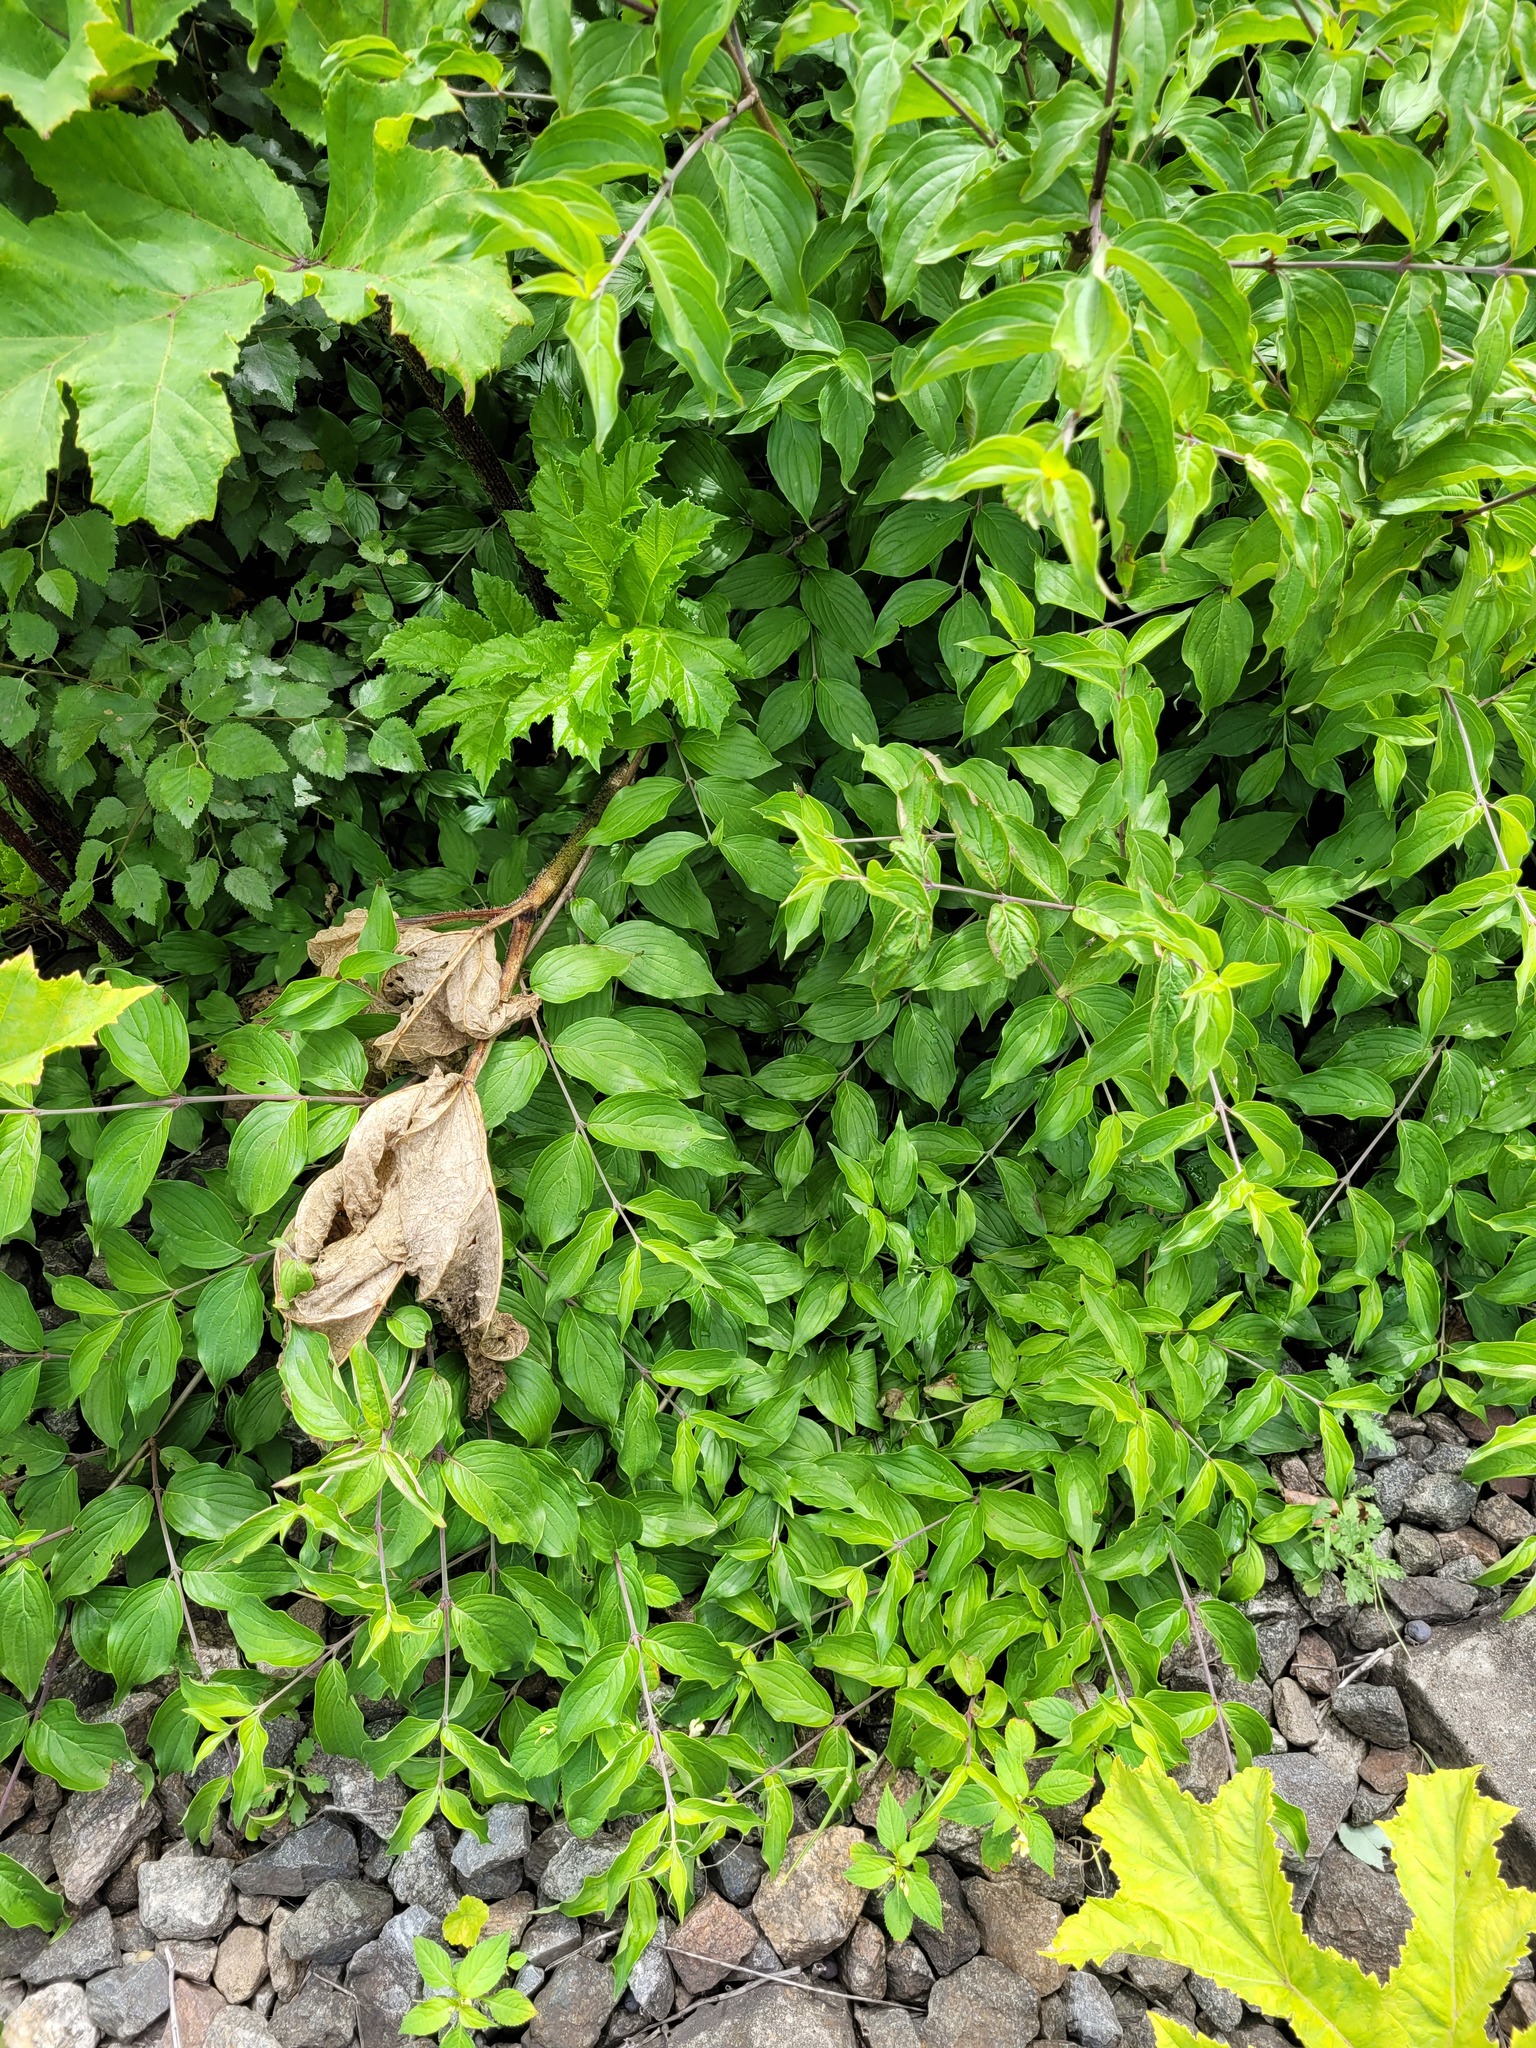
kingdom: Plantae
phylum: Tracheophyta
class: Magnoliopsida
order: Cornales
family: Cornaceae
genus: Cornus
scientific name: Cornus sanguinea
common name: Dogwood
